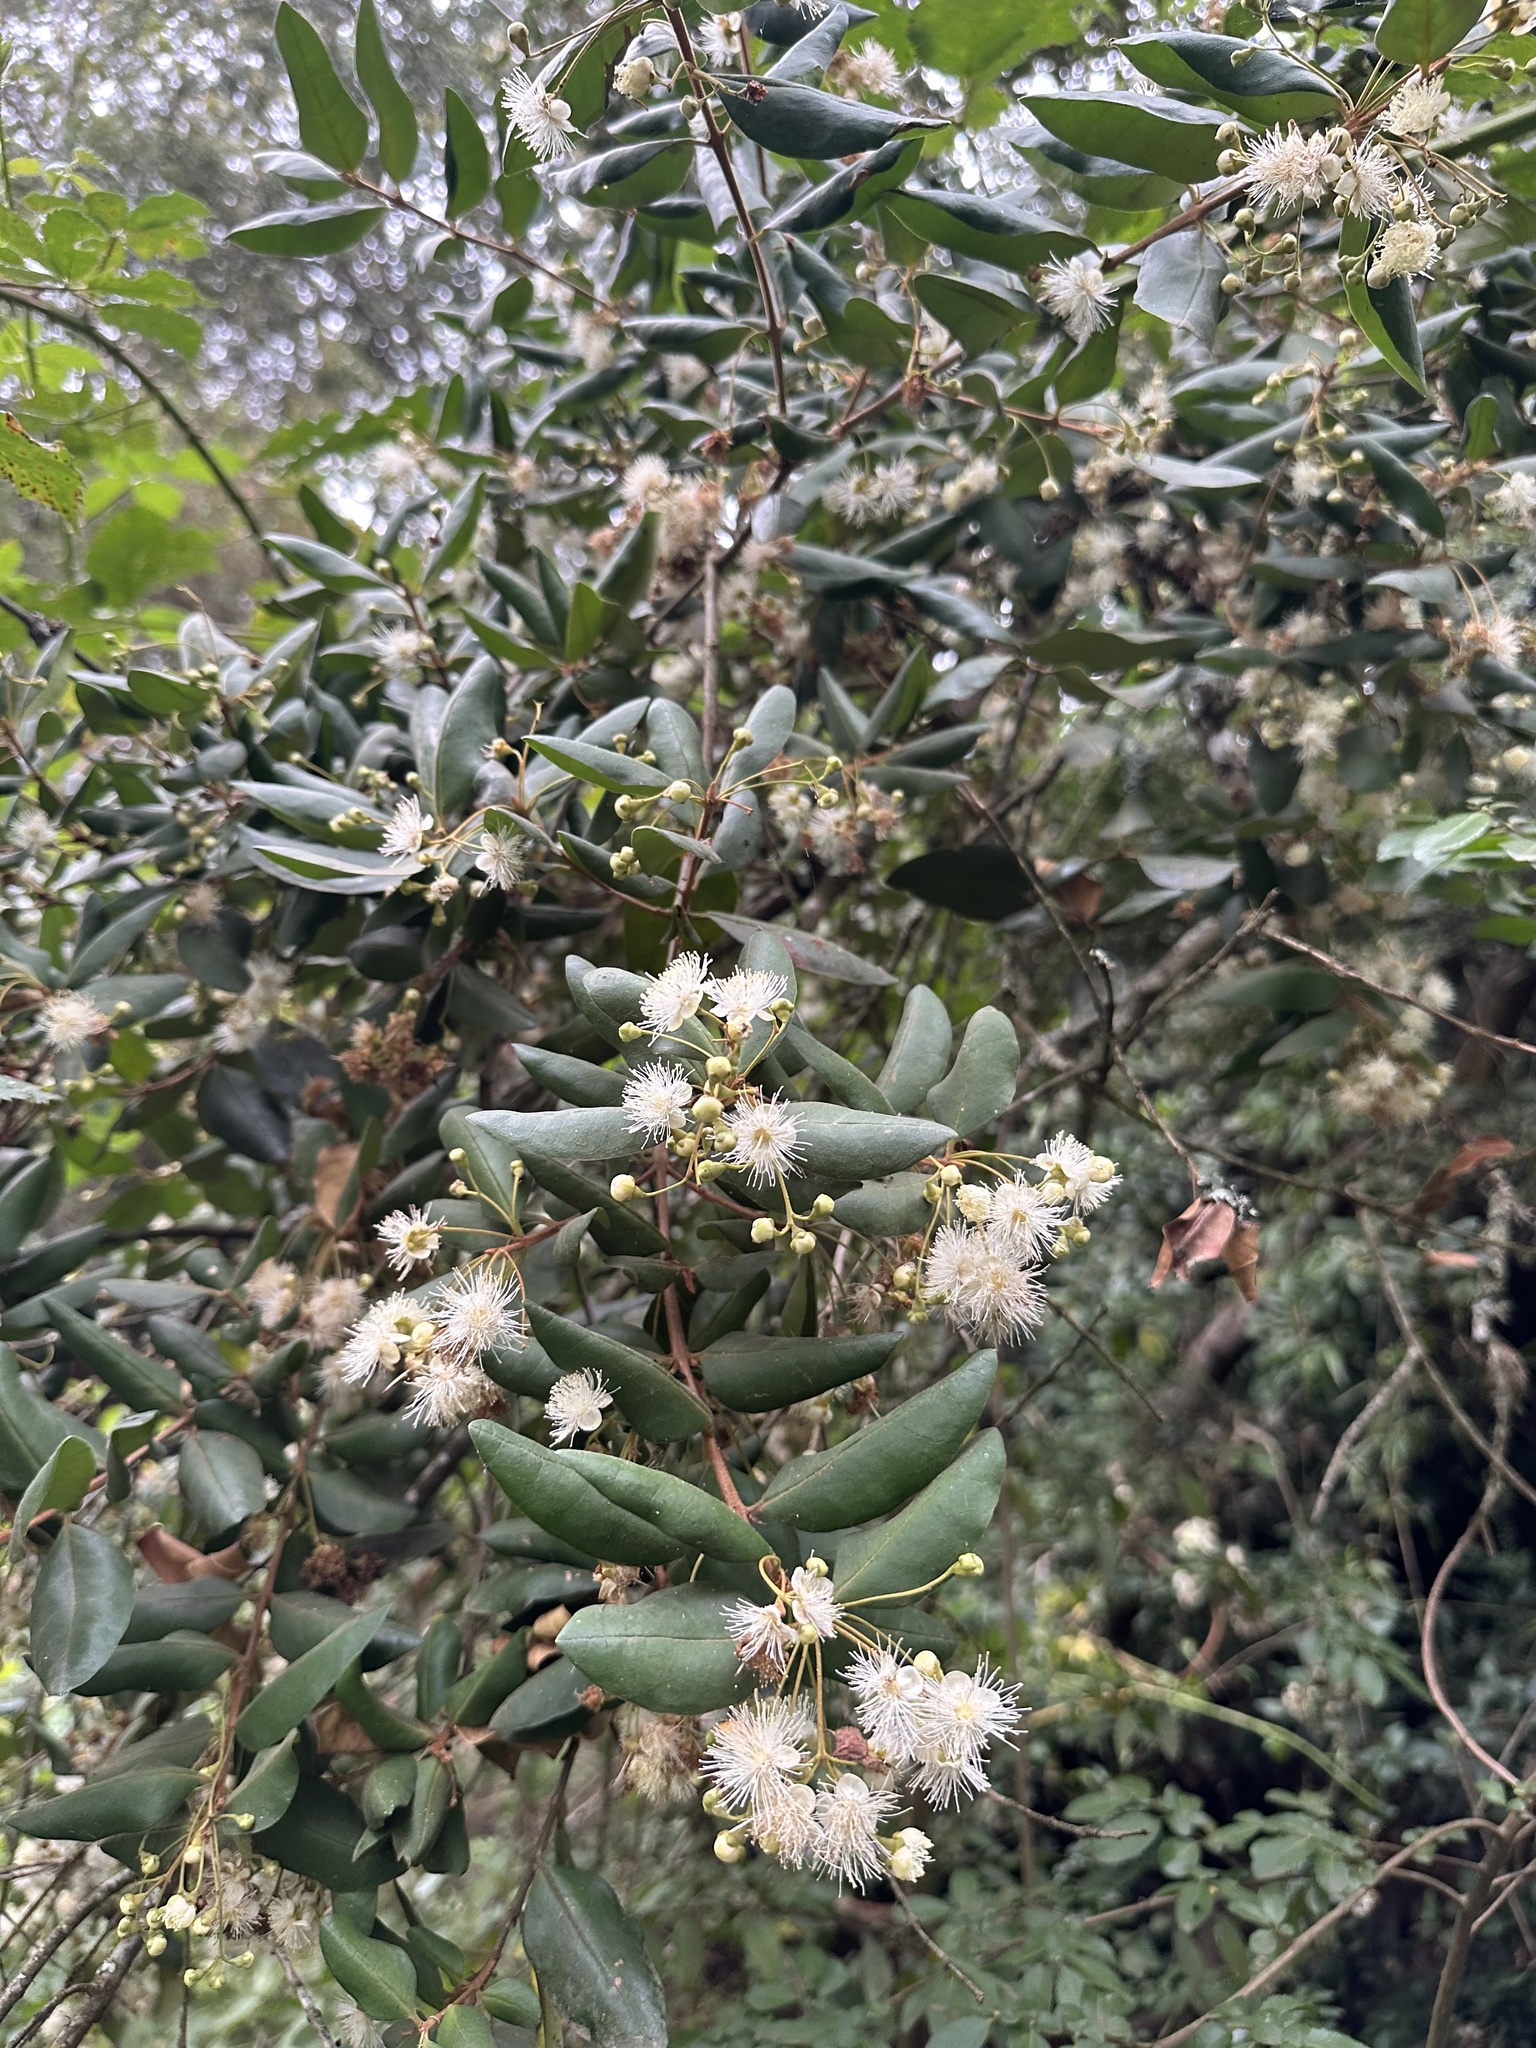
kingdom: Plantae
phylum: Tracheophyta
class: Magnoliopsida
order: Myrtales
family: Myrtaceae
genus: Myrceugenia
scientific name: Myrceugenia exsucca
